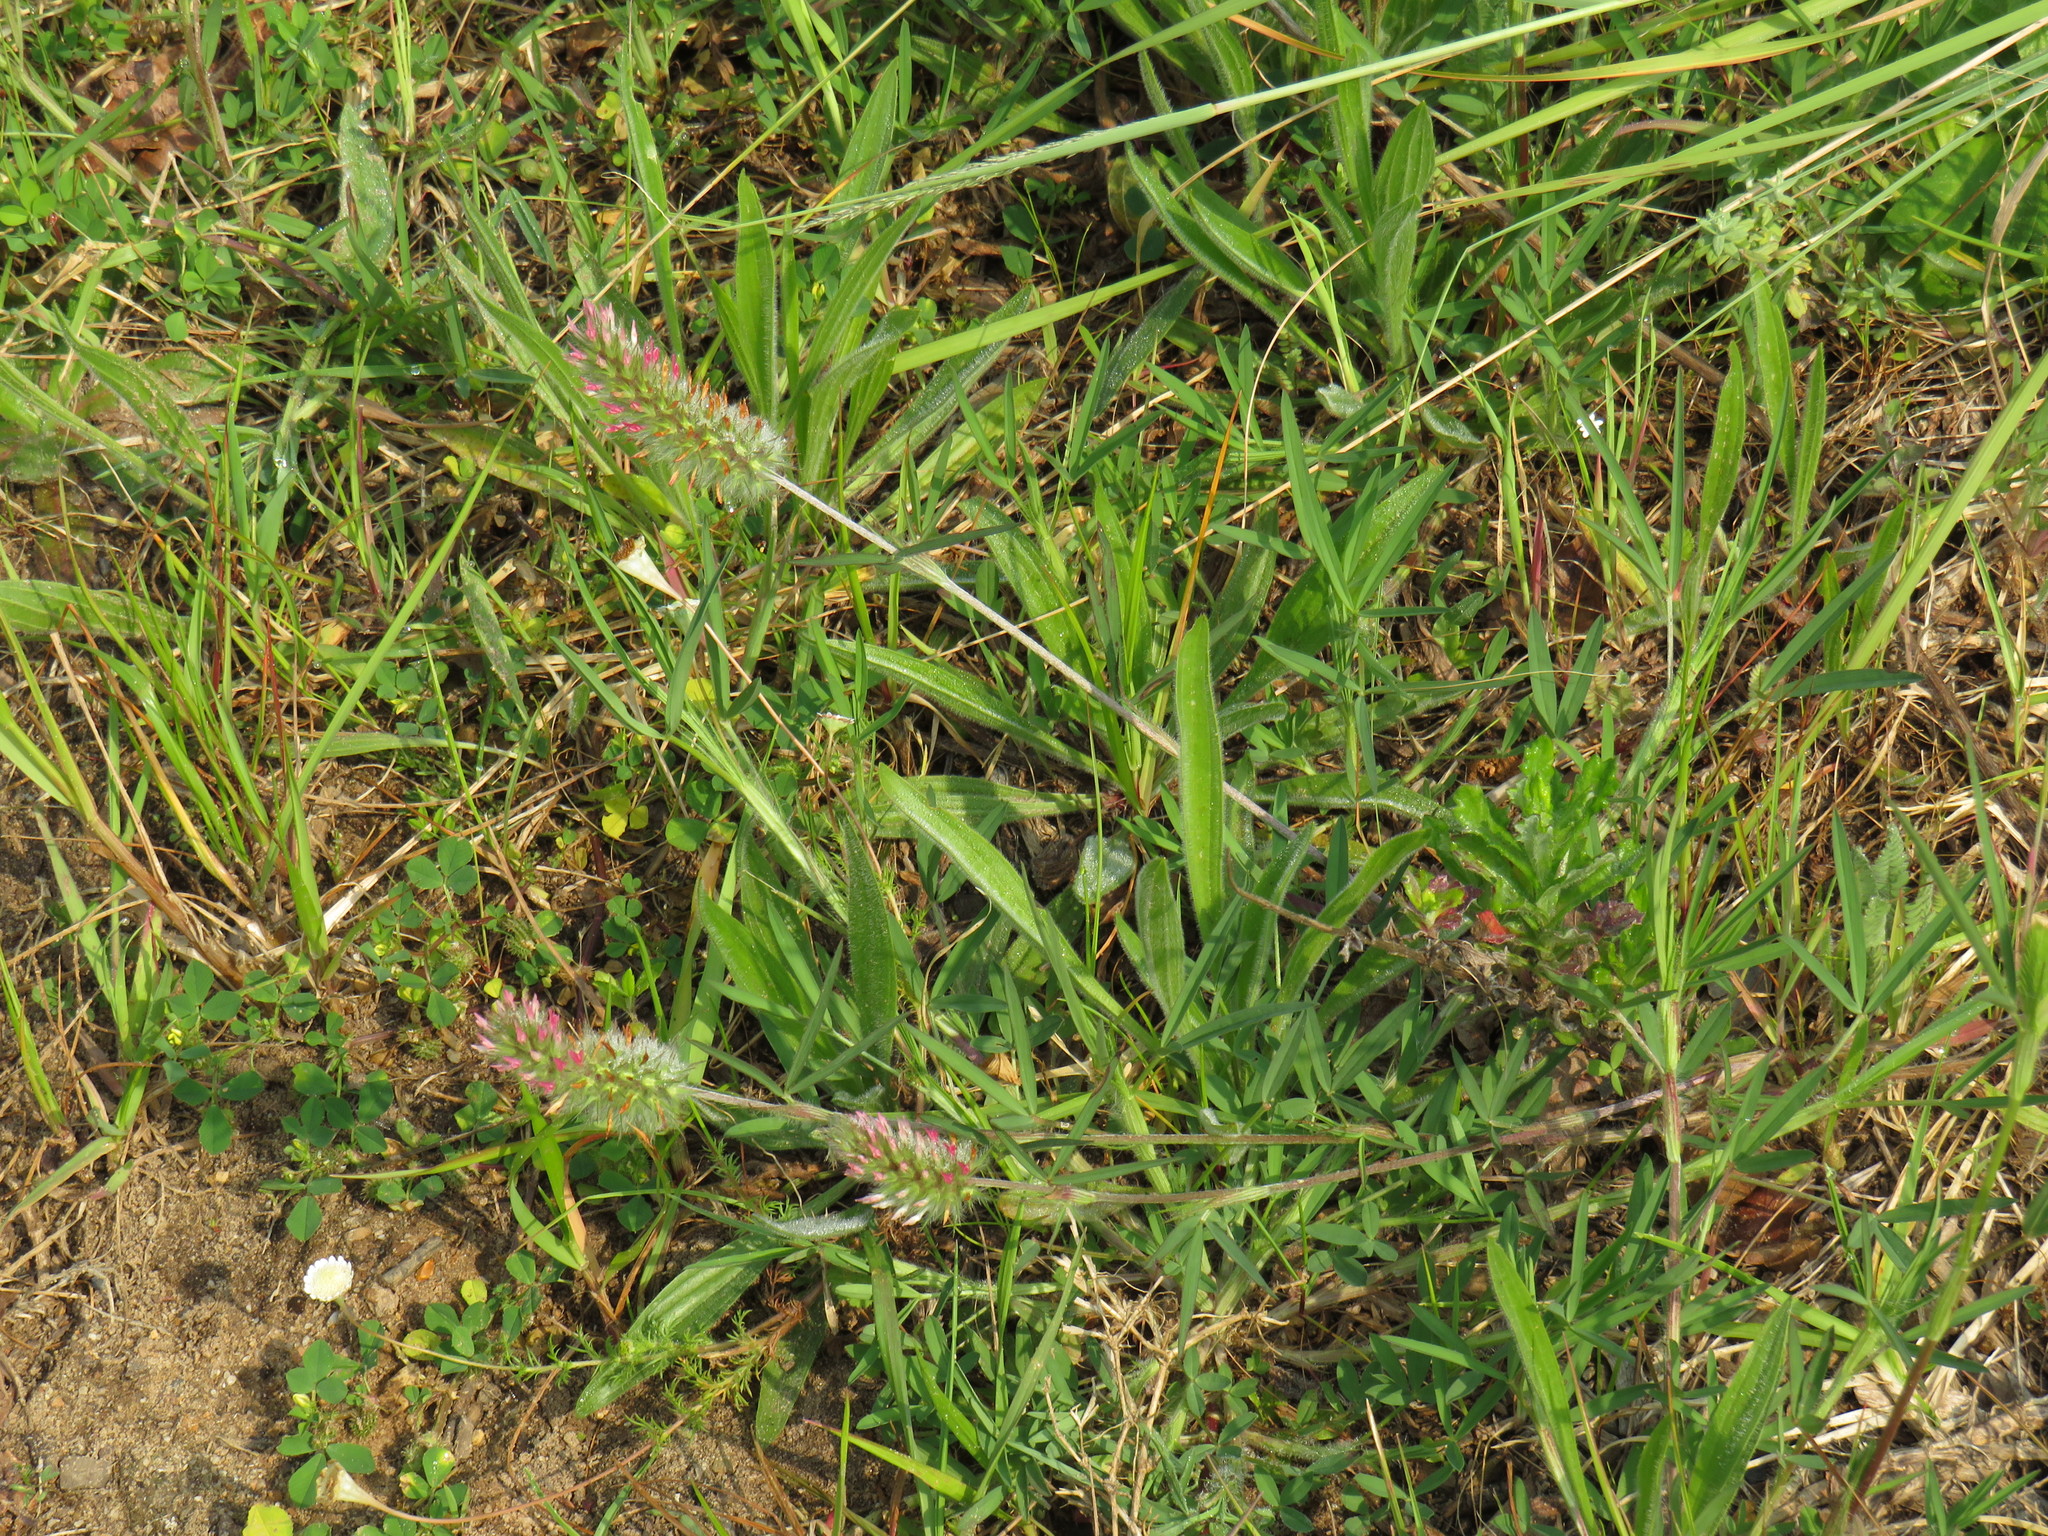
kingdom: Plantae
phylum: Tracheophyta
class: Magnoliopsida
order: Fabales
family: Fabaceae
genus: Trifolium
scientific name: Trifolium angustifolium
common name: Narrow clover
